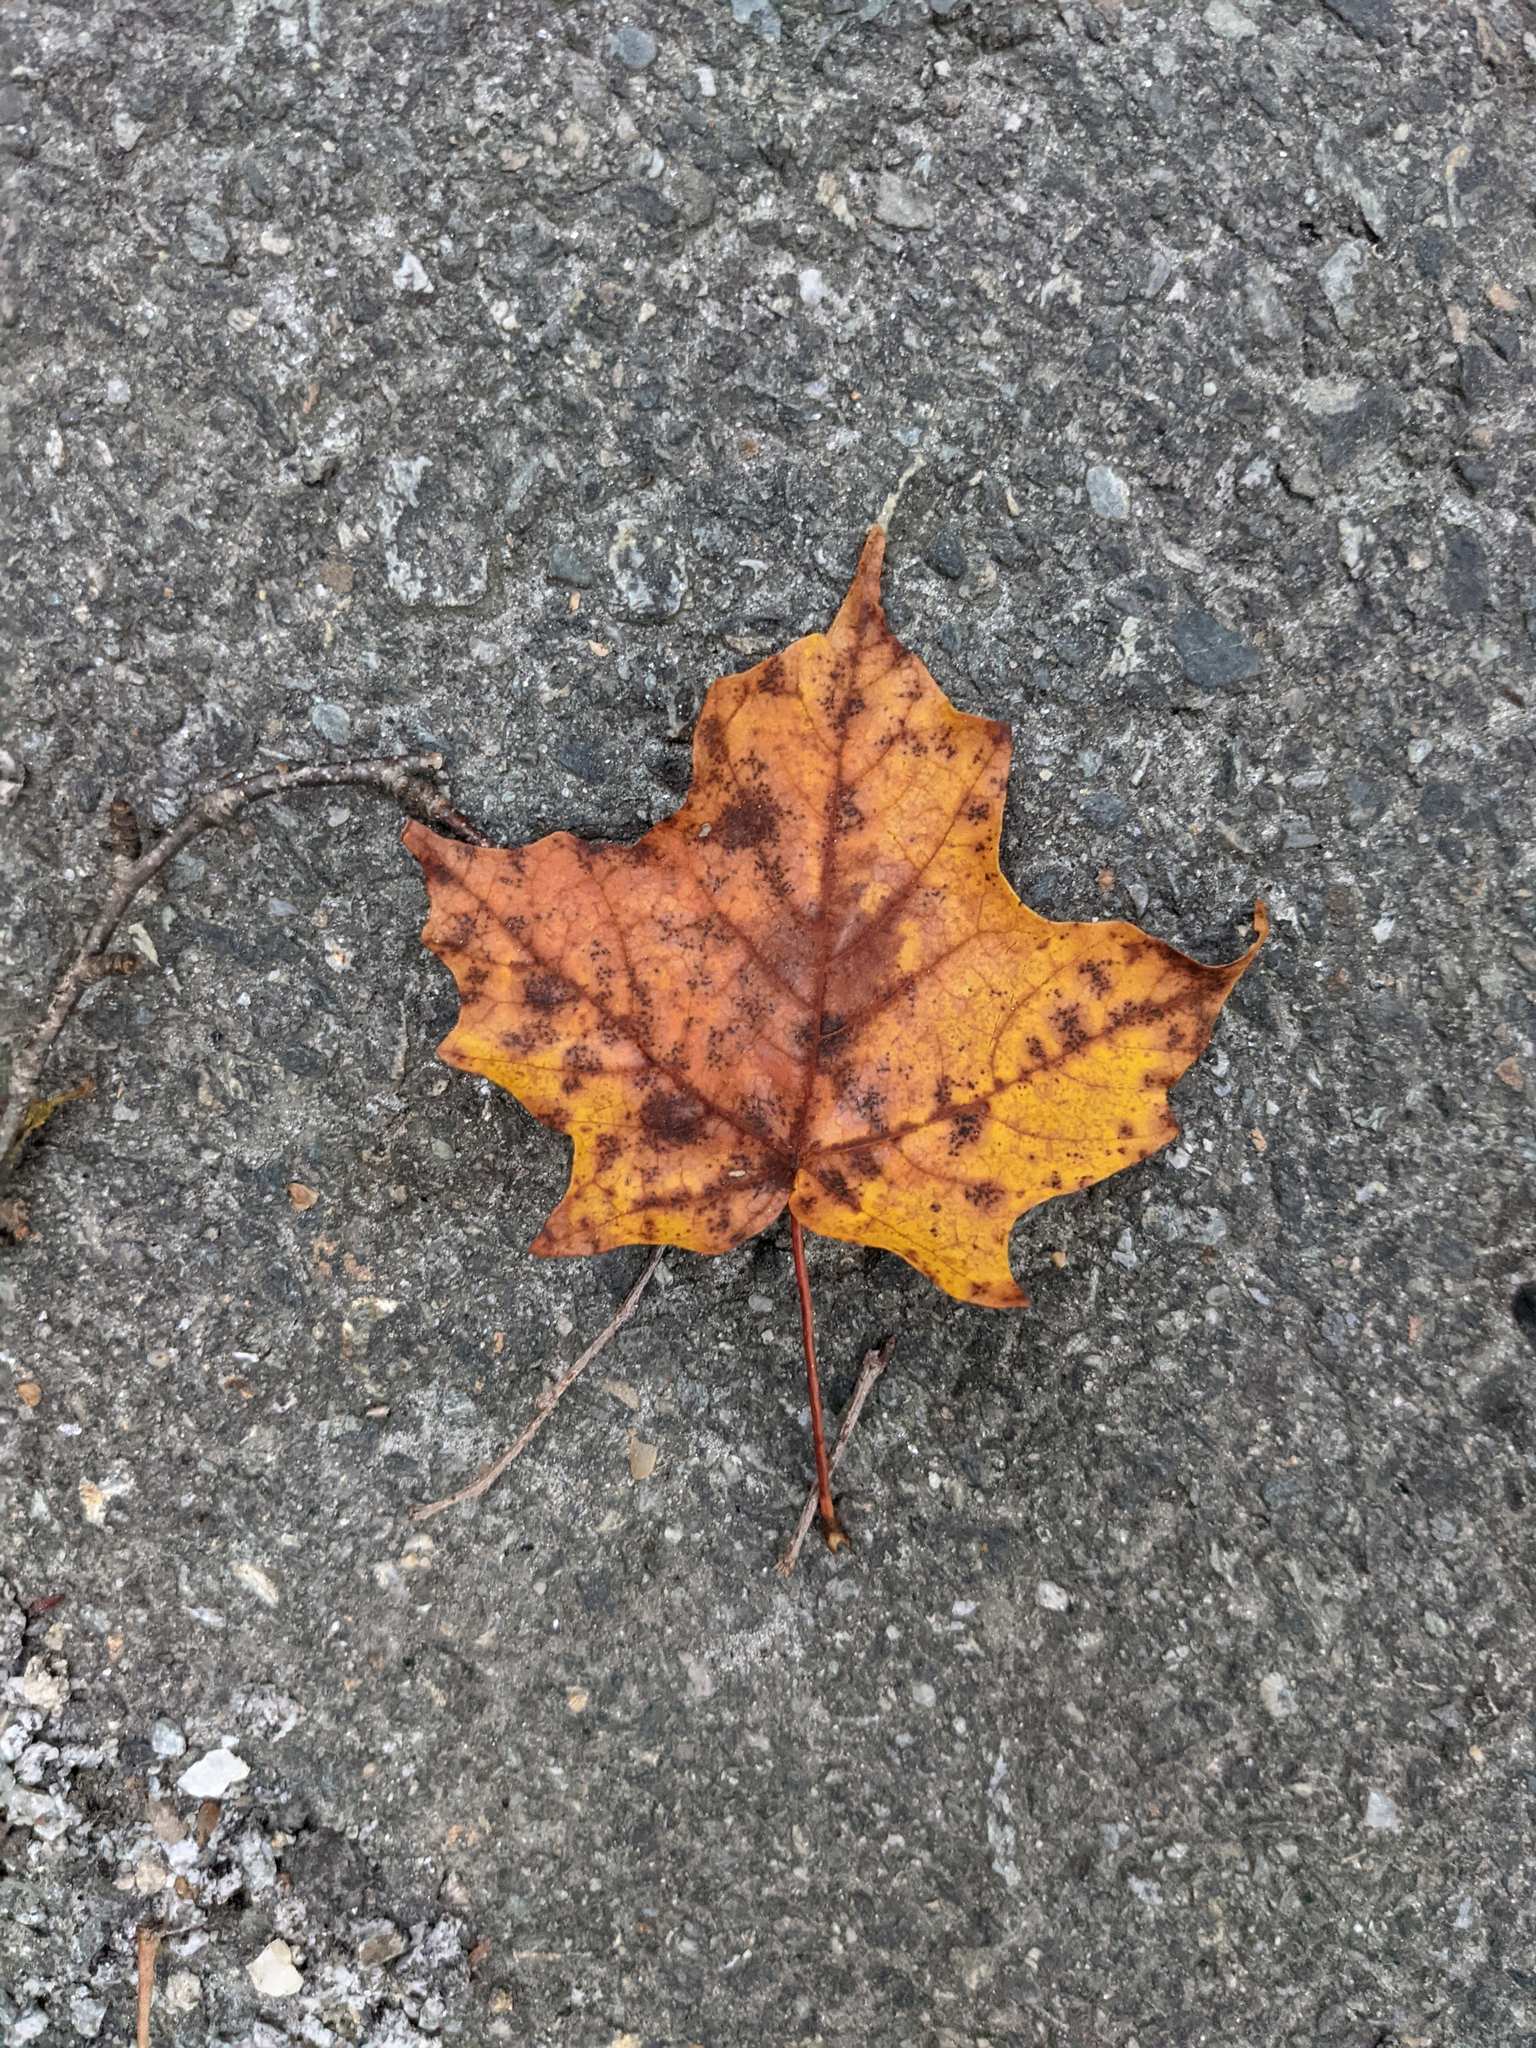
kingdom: Plantae
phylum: Tracheophyta
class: Magnoliopsida
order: Sapindales
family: Sapindaceae
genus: Acer
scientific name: Acer saccharum
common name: Sugar maple
